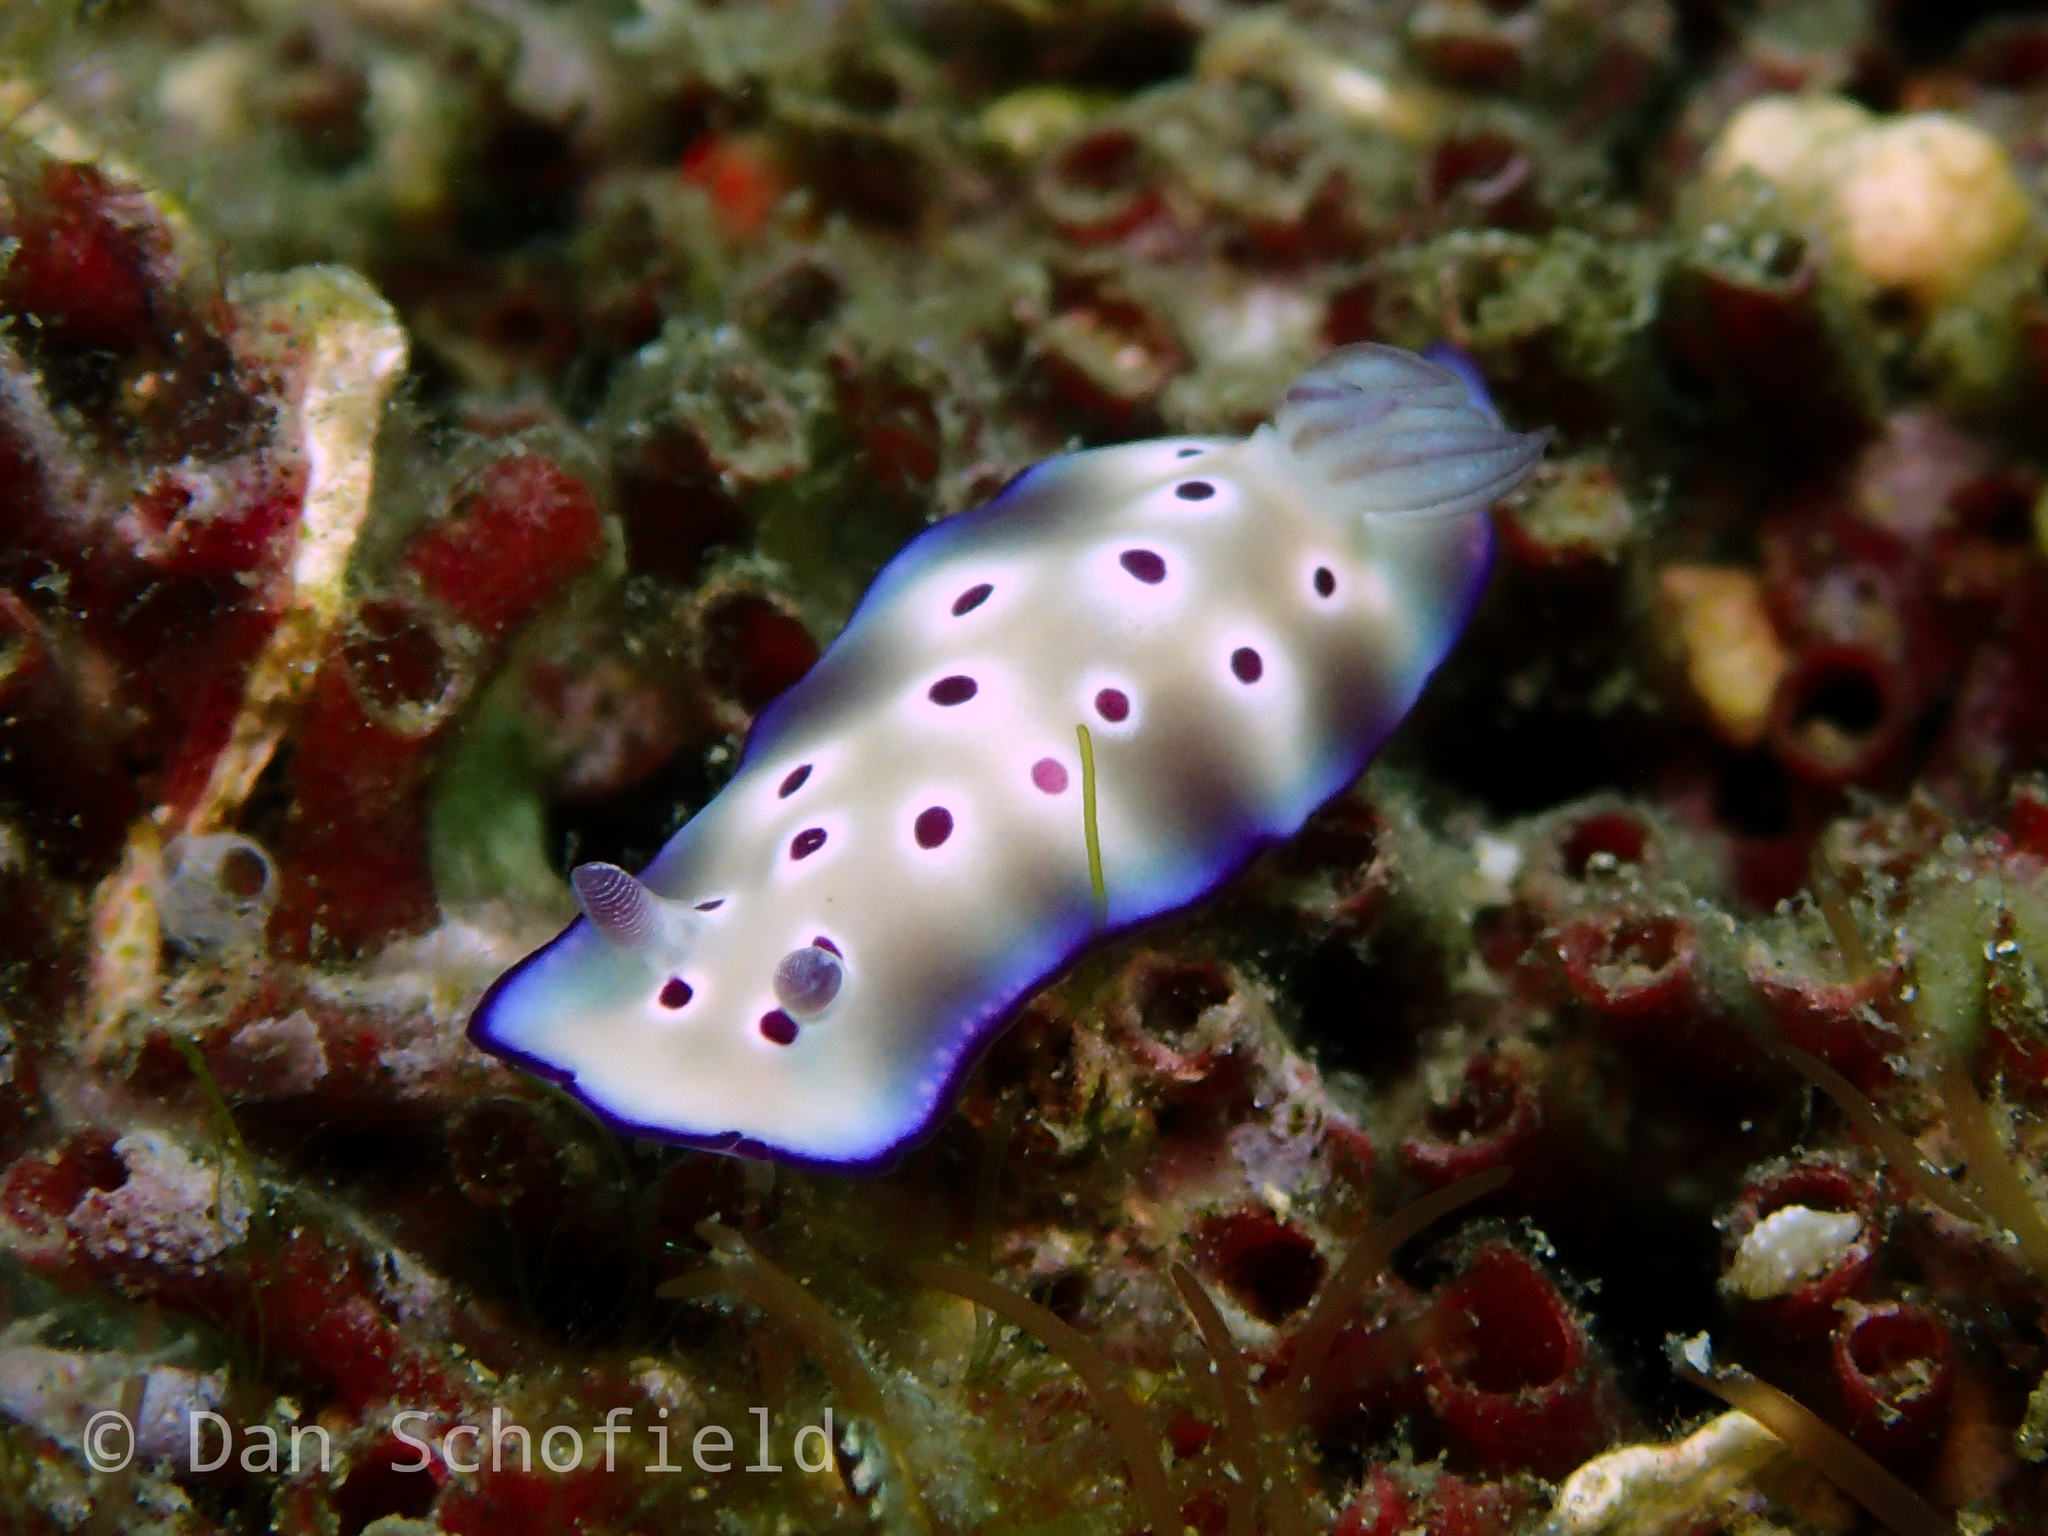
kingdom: Animalia
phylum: Mollusca
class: Gastropoda
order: Nudibranchia
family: Chromodorididae
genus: Hypselodoris
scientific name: Hypselodoris tryoni
